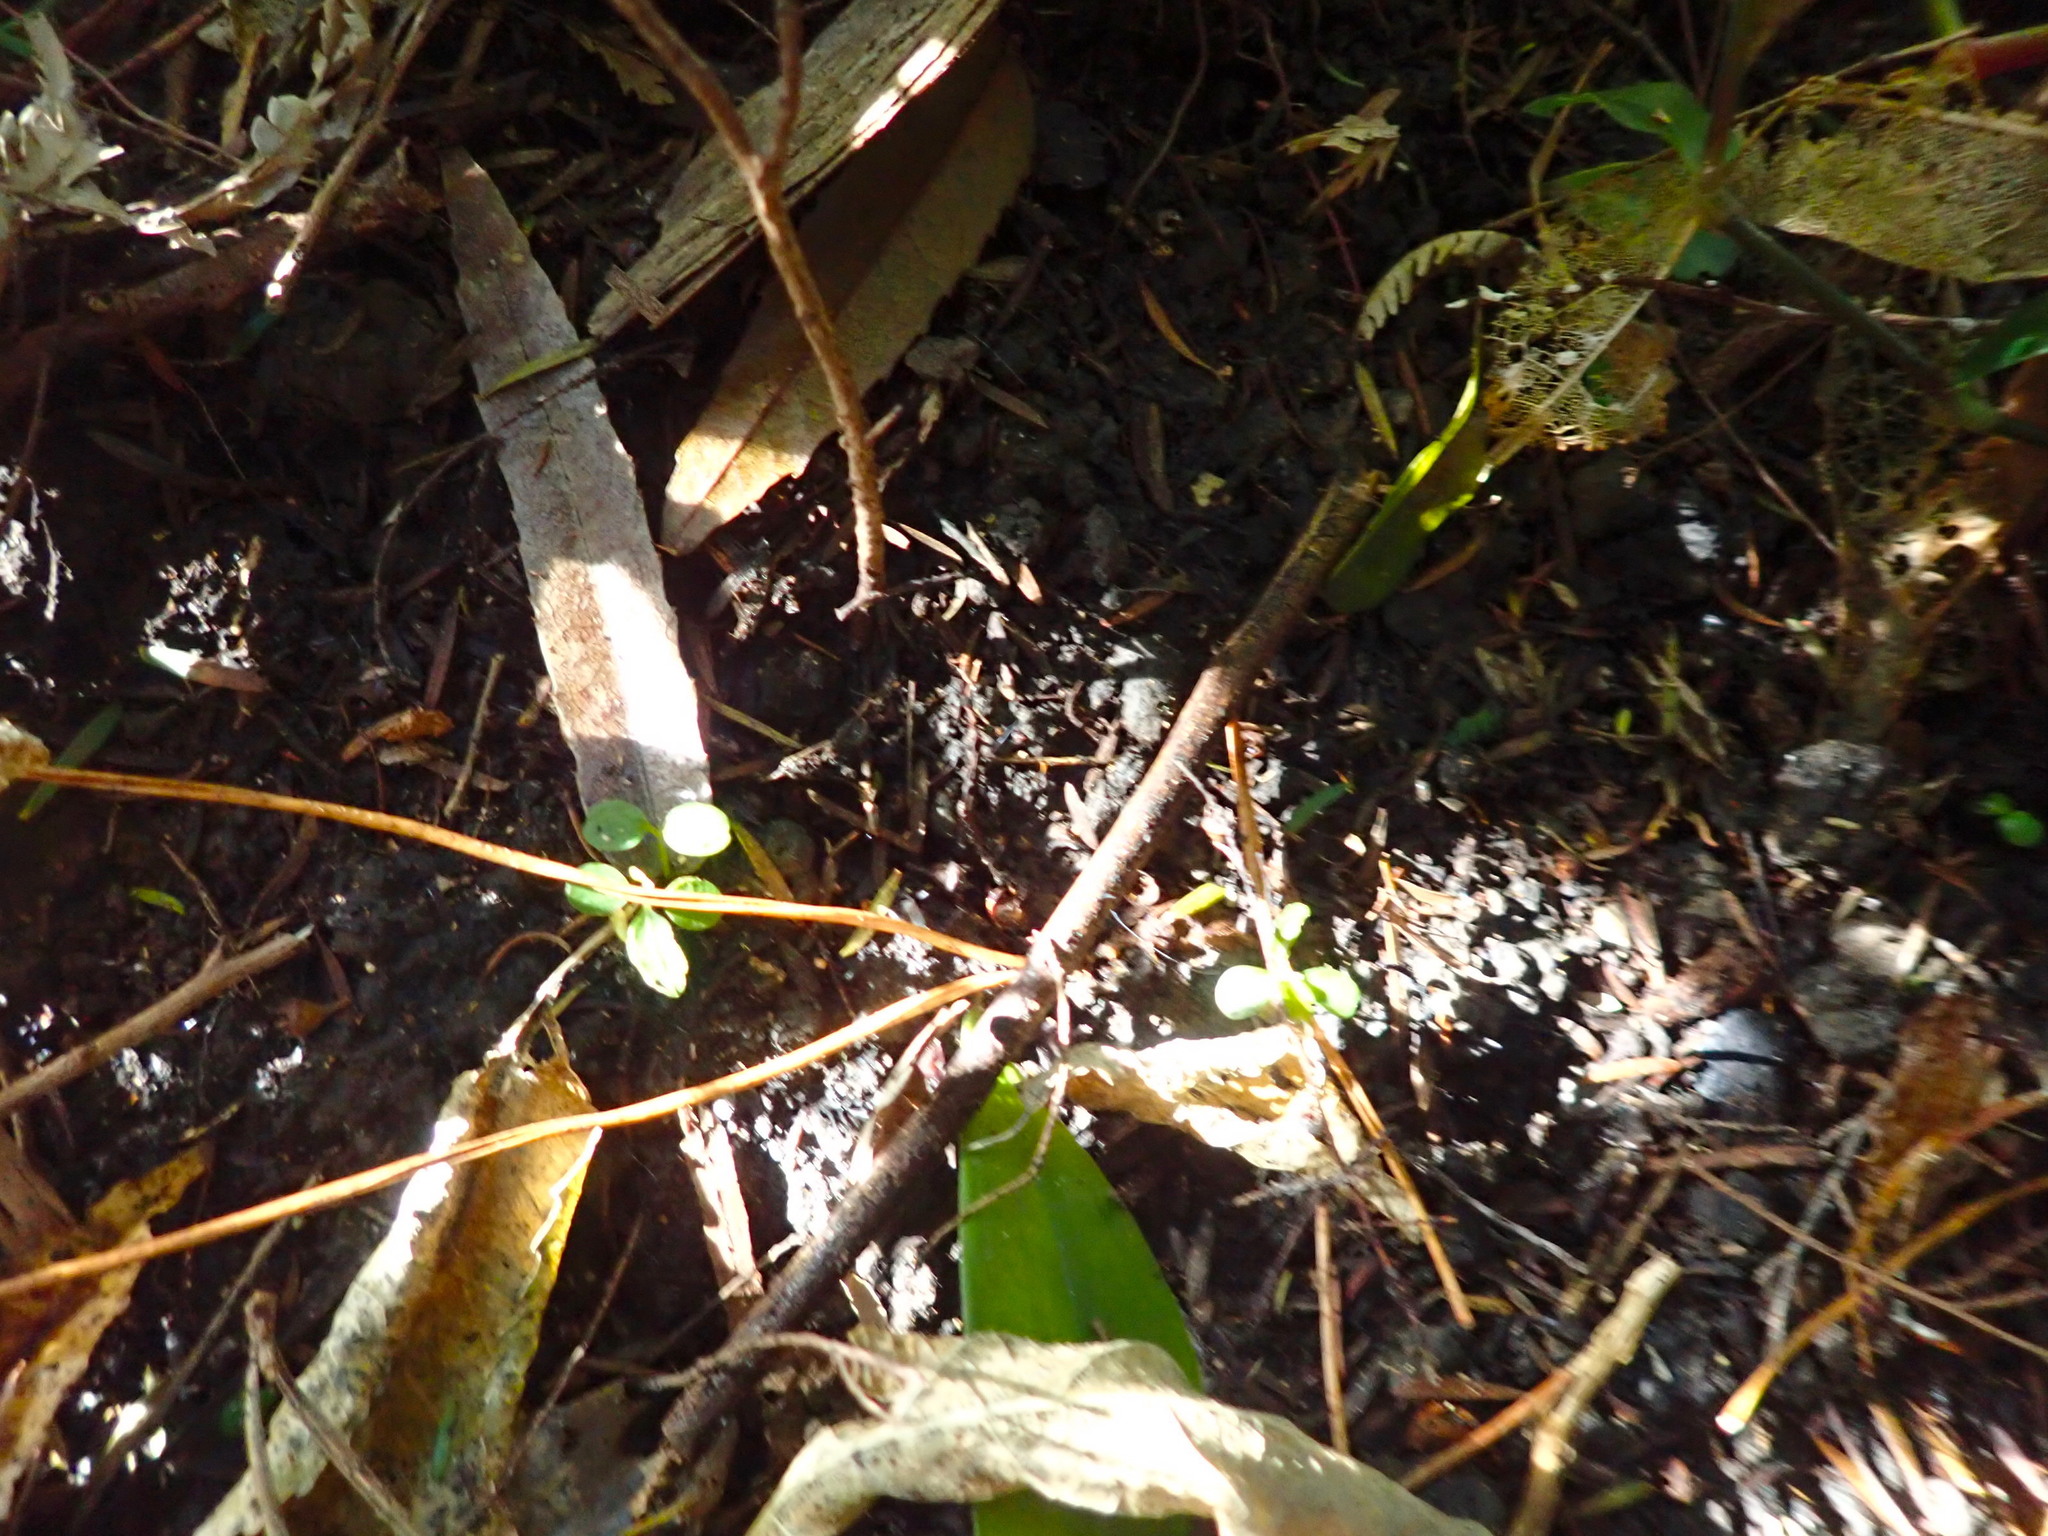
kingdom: Plantae
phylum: Tracheophyta
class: Magnoliopsida
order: Malpighiales
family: Violaceae
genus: Melicytus
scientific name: Melicytus ramiflorus
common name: Mahoe
